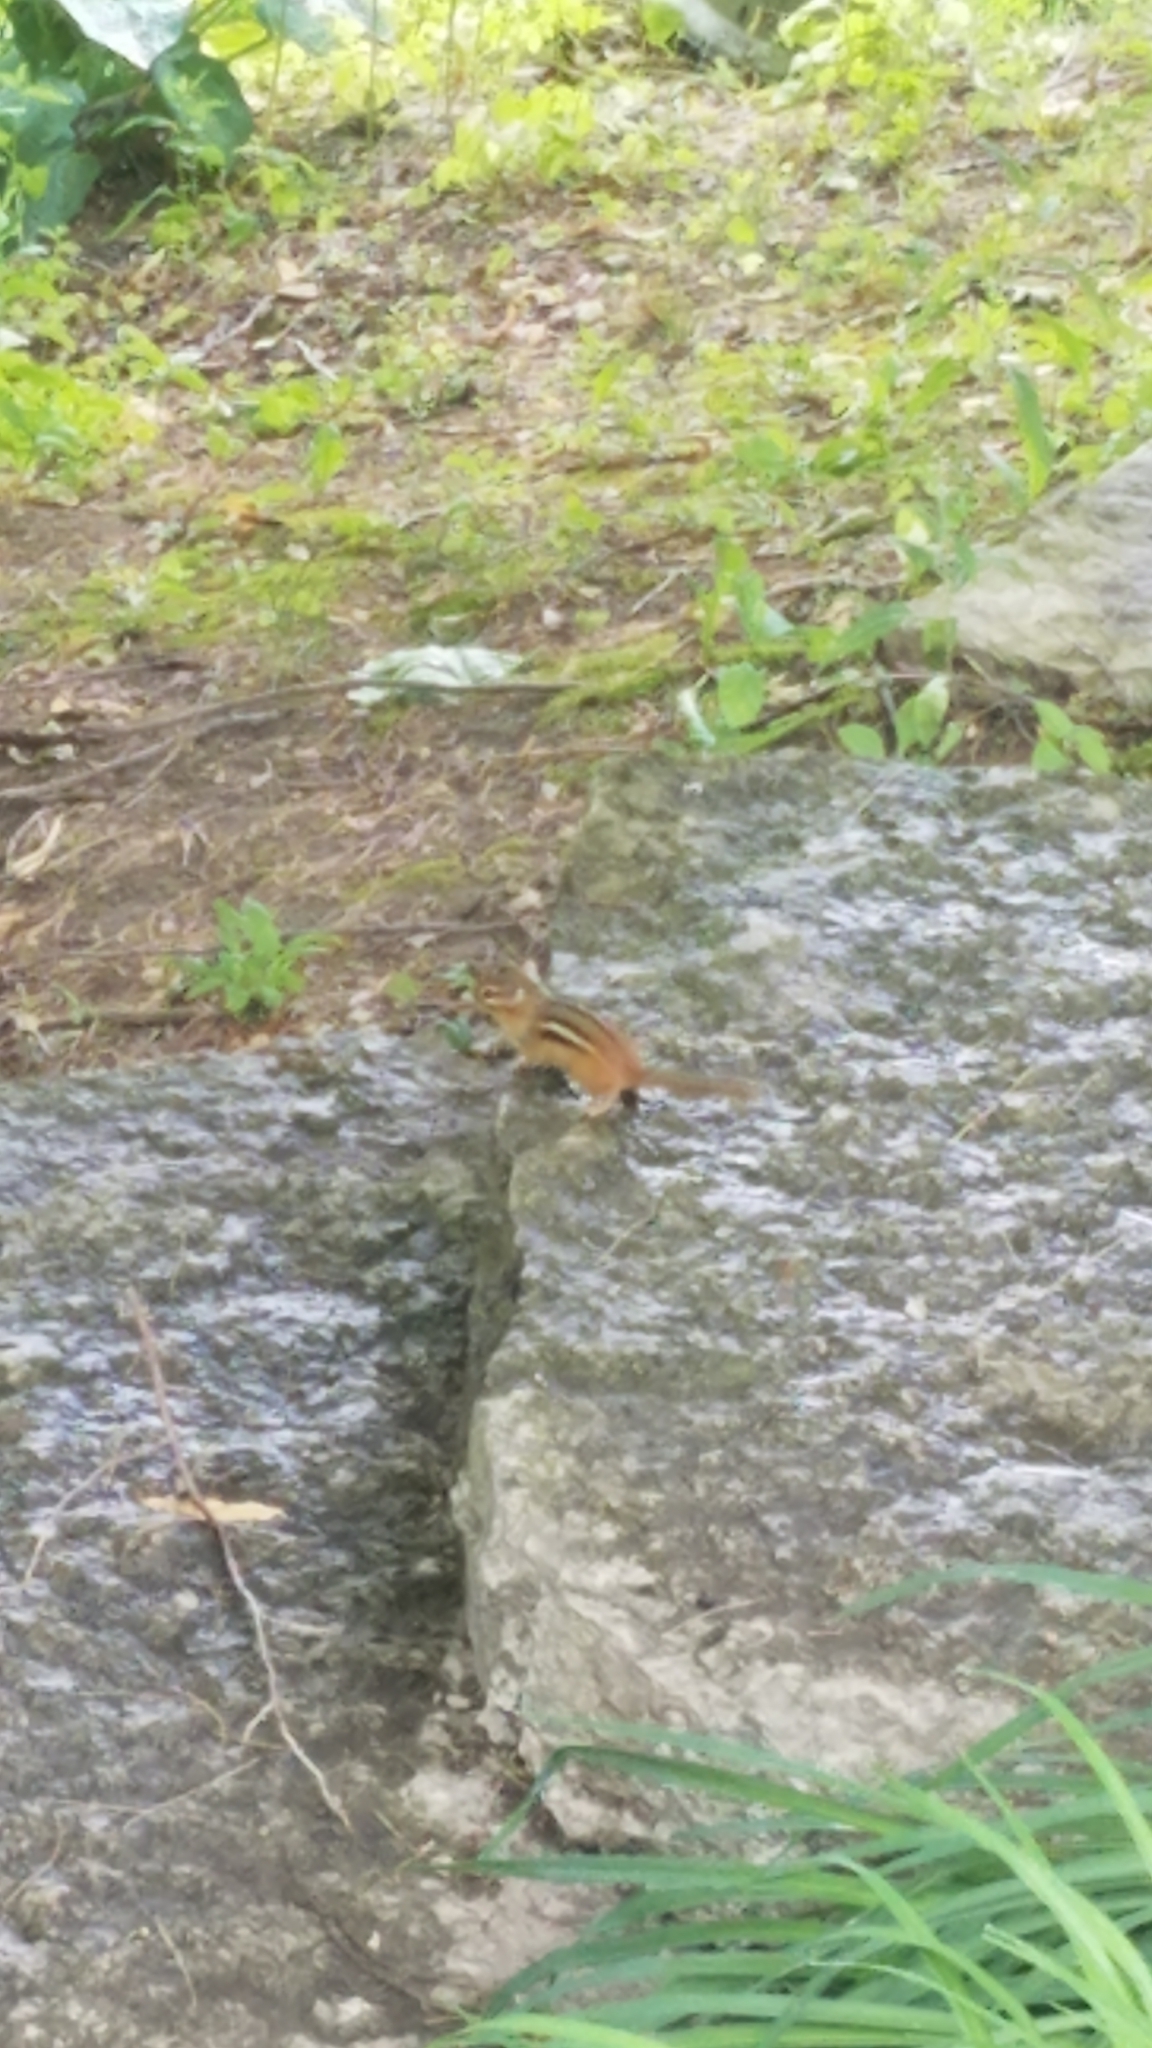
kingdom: Animalia
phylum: Chordata
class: Mammalia
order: Rodentia
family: Sciuridae
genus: Tamias
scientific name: Tamias striatus
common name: Eastern chipmunk
